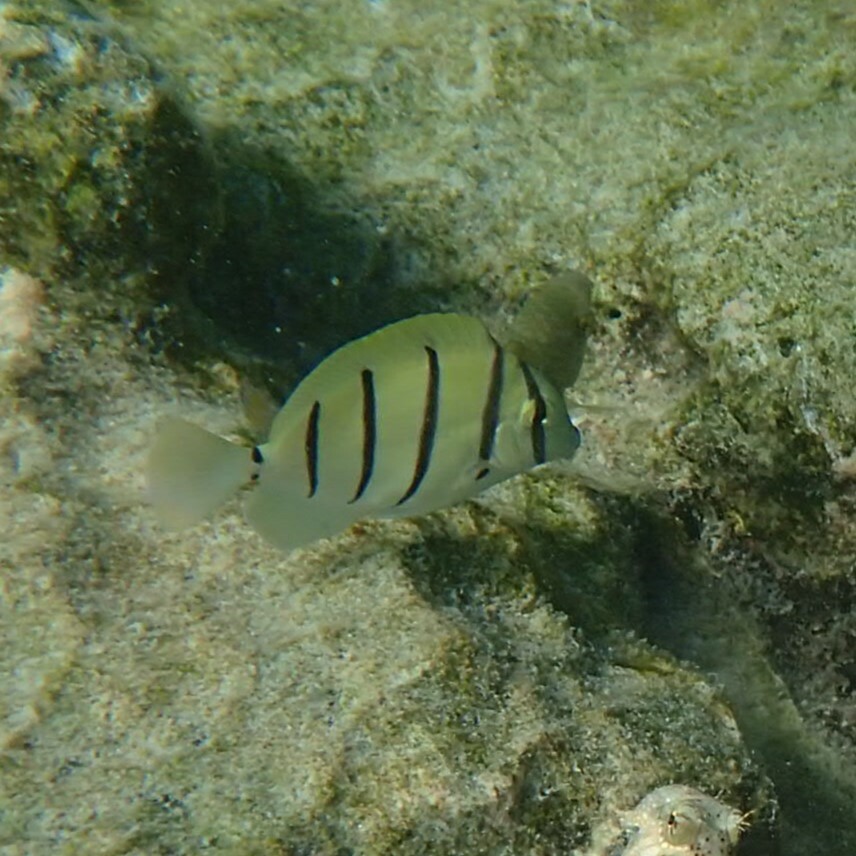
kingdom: Animalia
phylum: Chordata
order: Perciformes
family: Acanthuridae
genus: Acanthurus
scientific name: Acanthurus triostegus
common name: Convict surgeonfish
